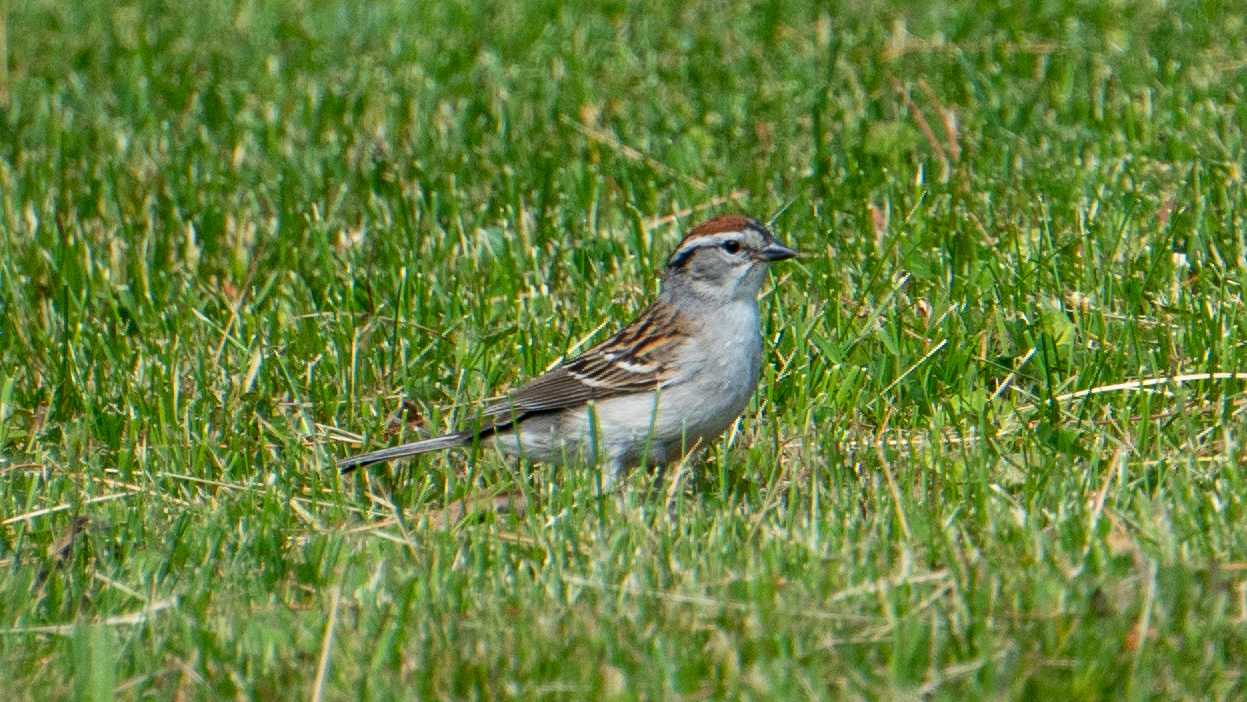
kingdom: Animalia
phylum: Chordata
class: Aves
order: Passeriformes
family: Passerellidae
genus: Spizella
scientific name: Spizella passerina
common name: Chipping sparrow
